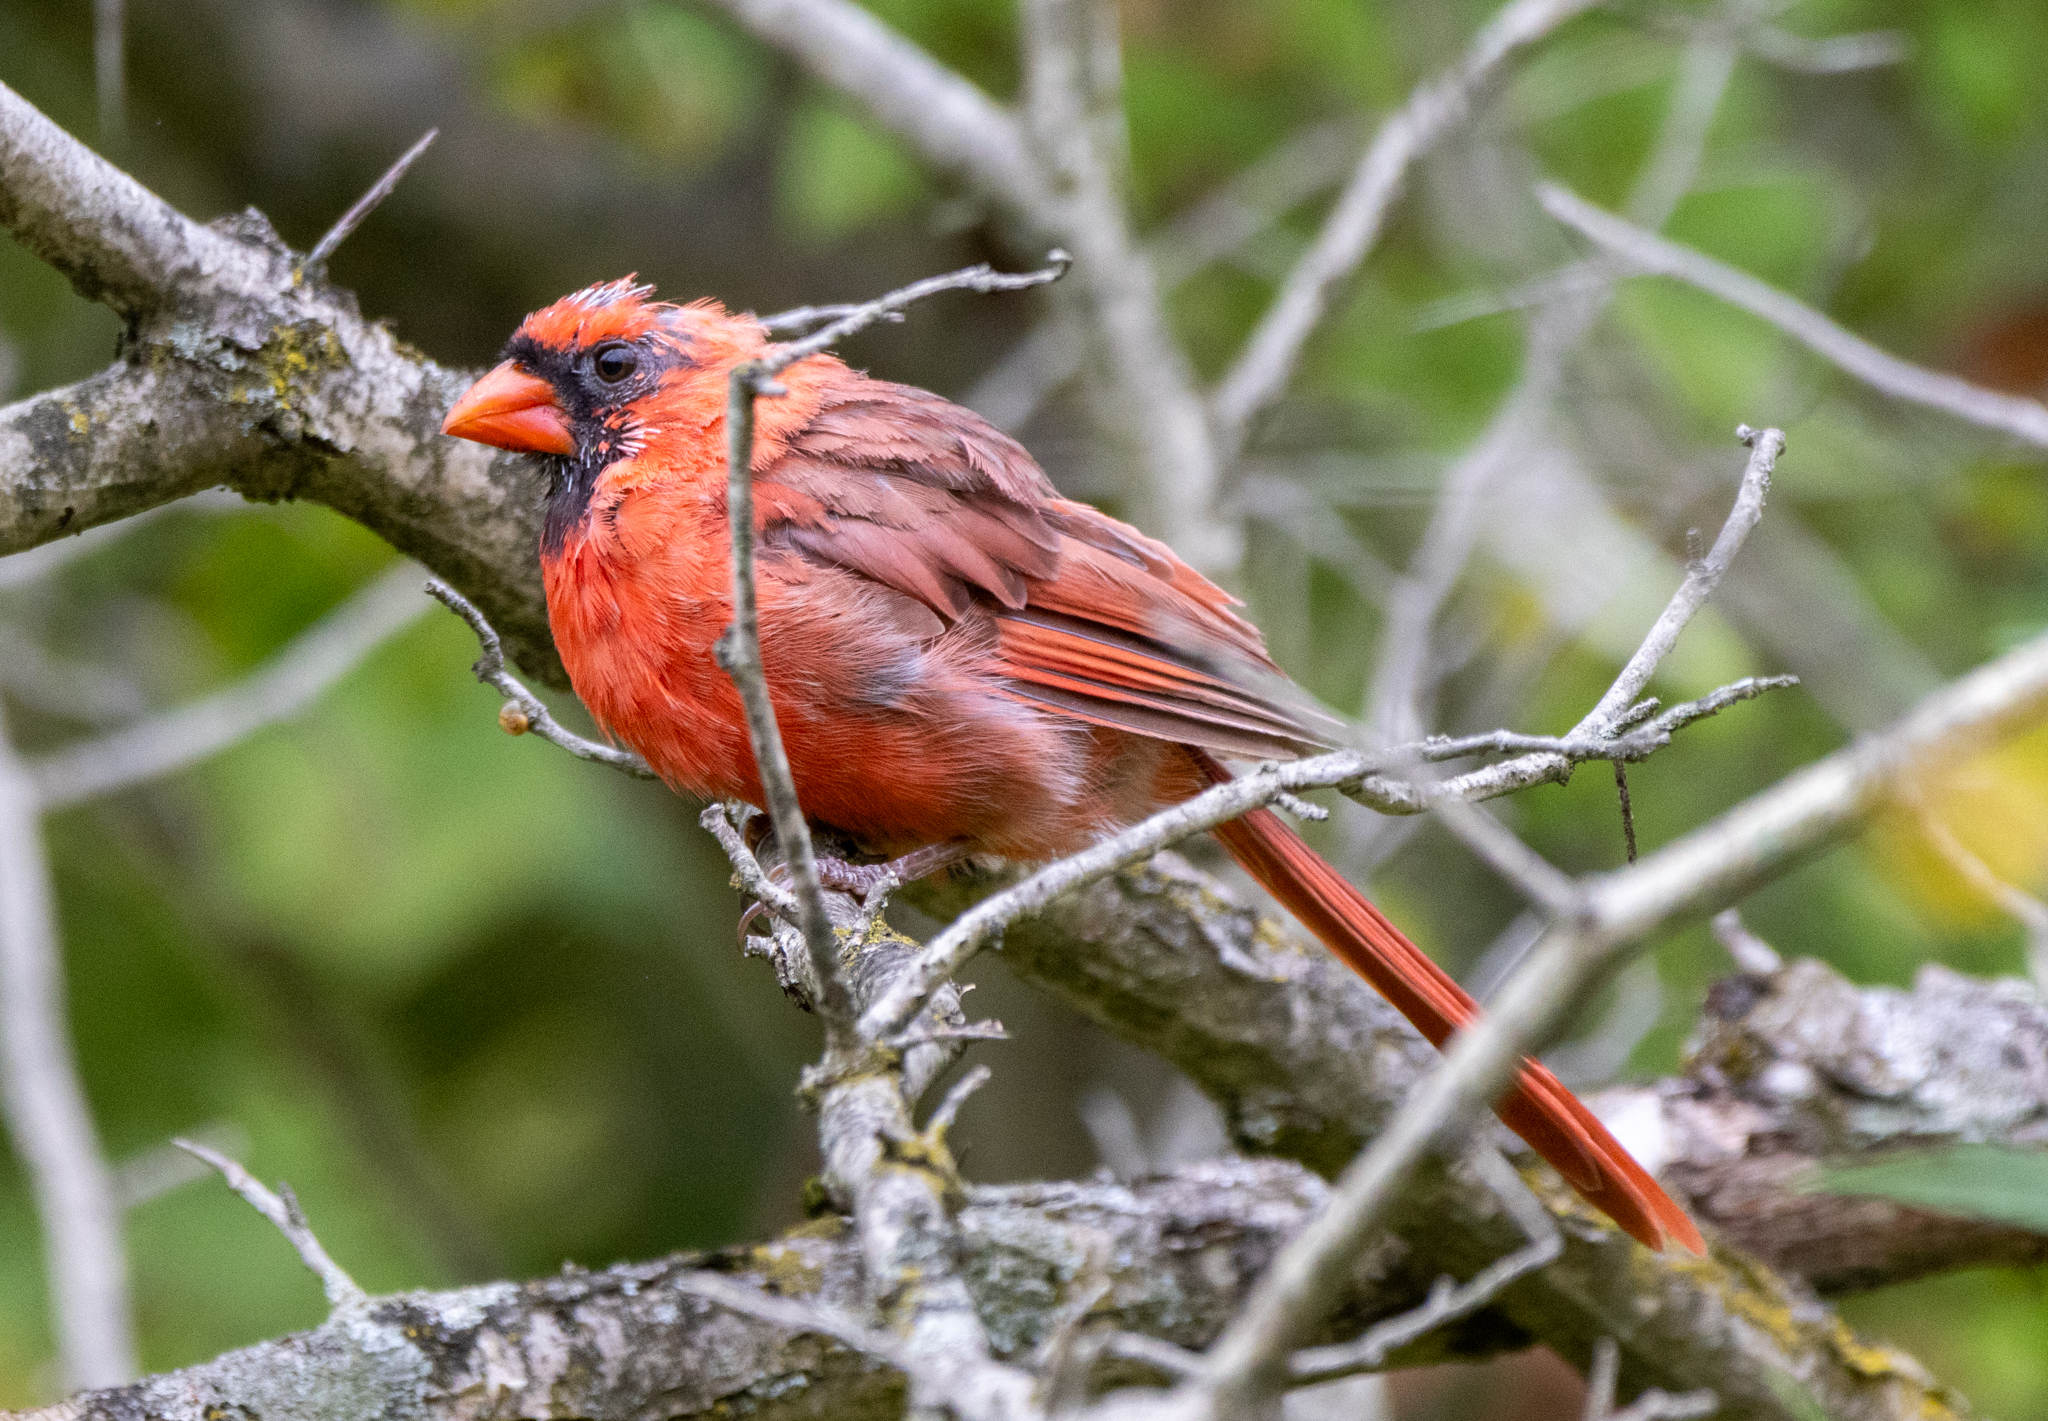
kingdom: Animalia
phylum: Chordata
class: Aves
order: Passeriformes
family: Cardinalidae
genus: Cardinalis
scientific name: Cardinalis cardinalis
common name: Northern cardinal
